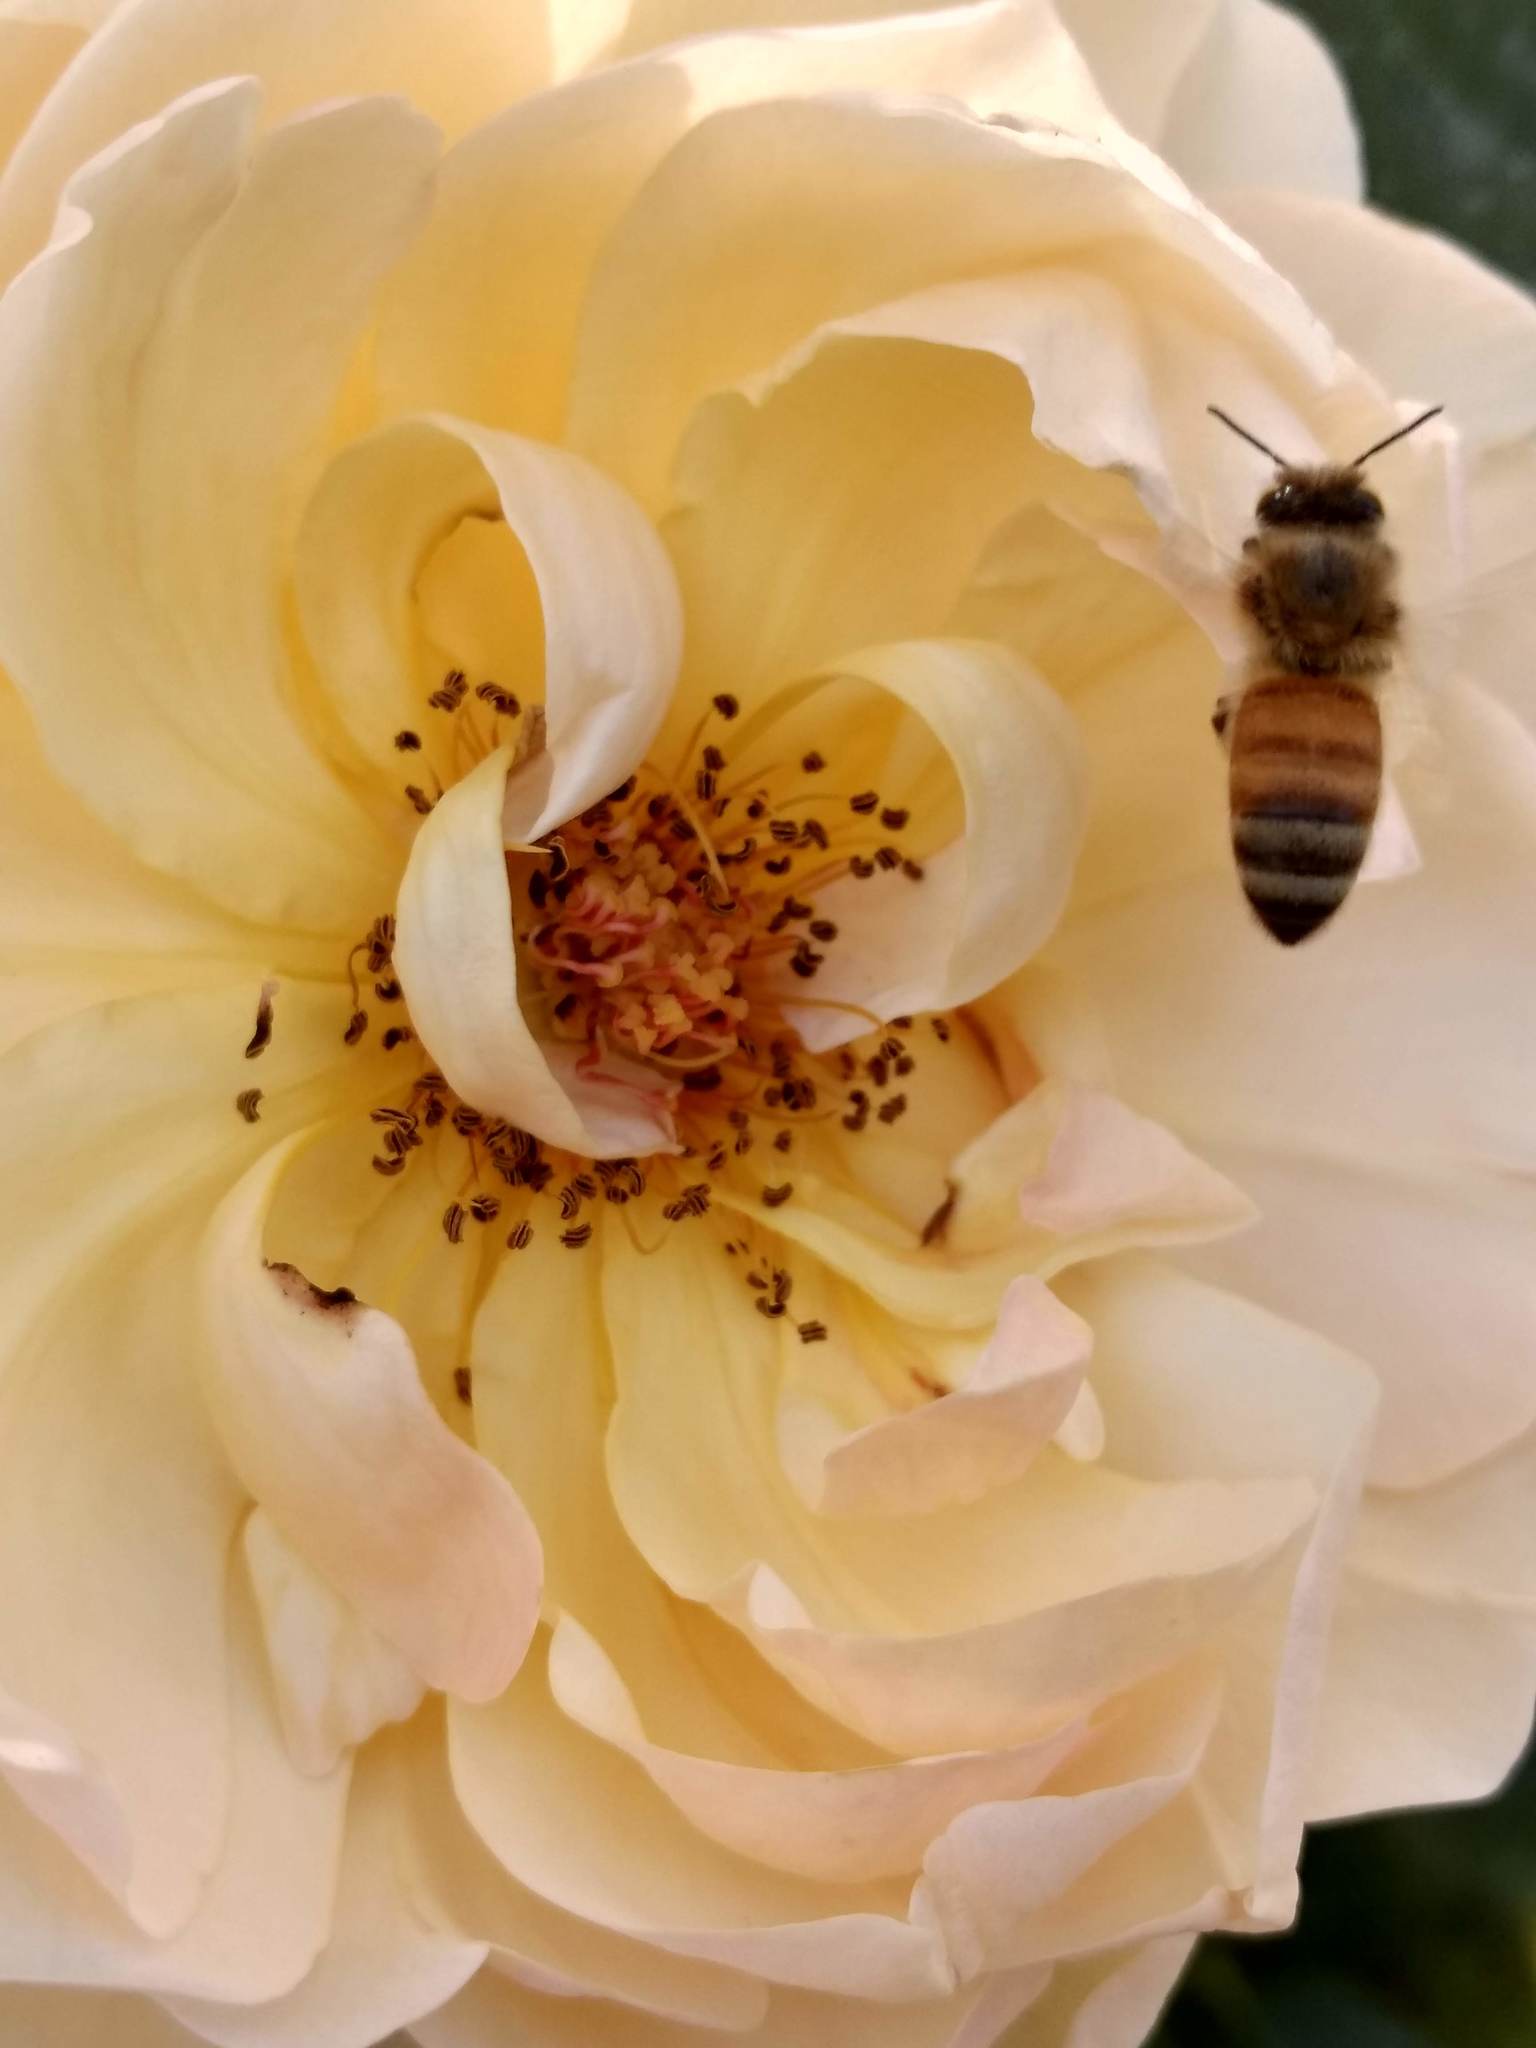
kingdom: Animalia
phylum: Arthropoda
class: Insecta
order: Hymenoptera
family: Apidae
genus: Apis
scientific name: Apis mellifera
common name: Honey bee
